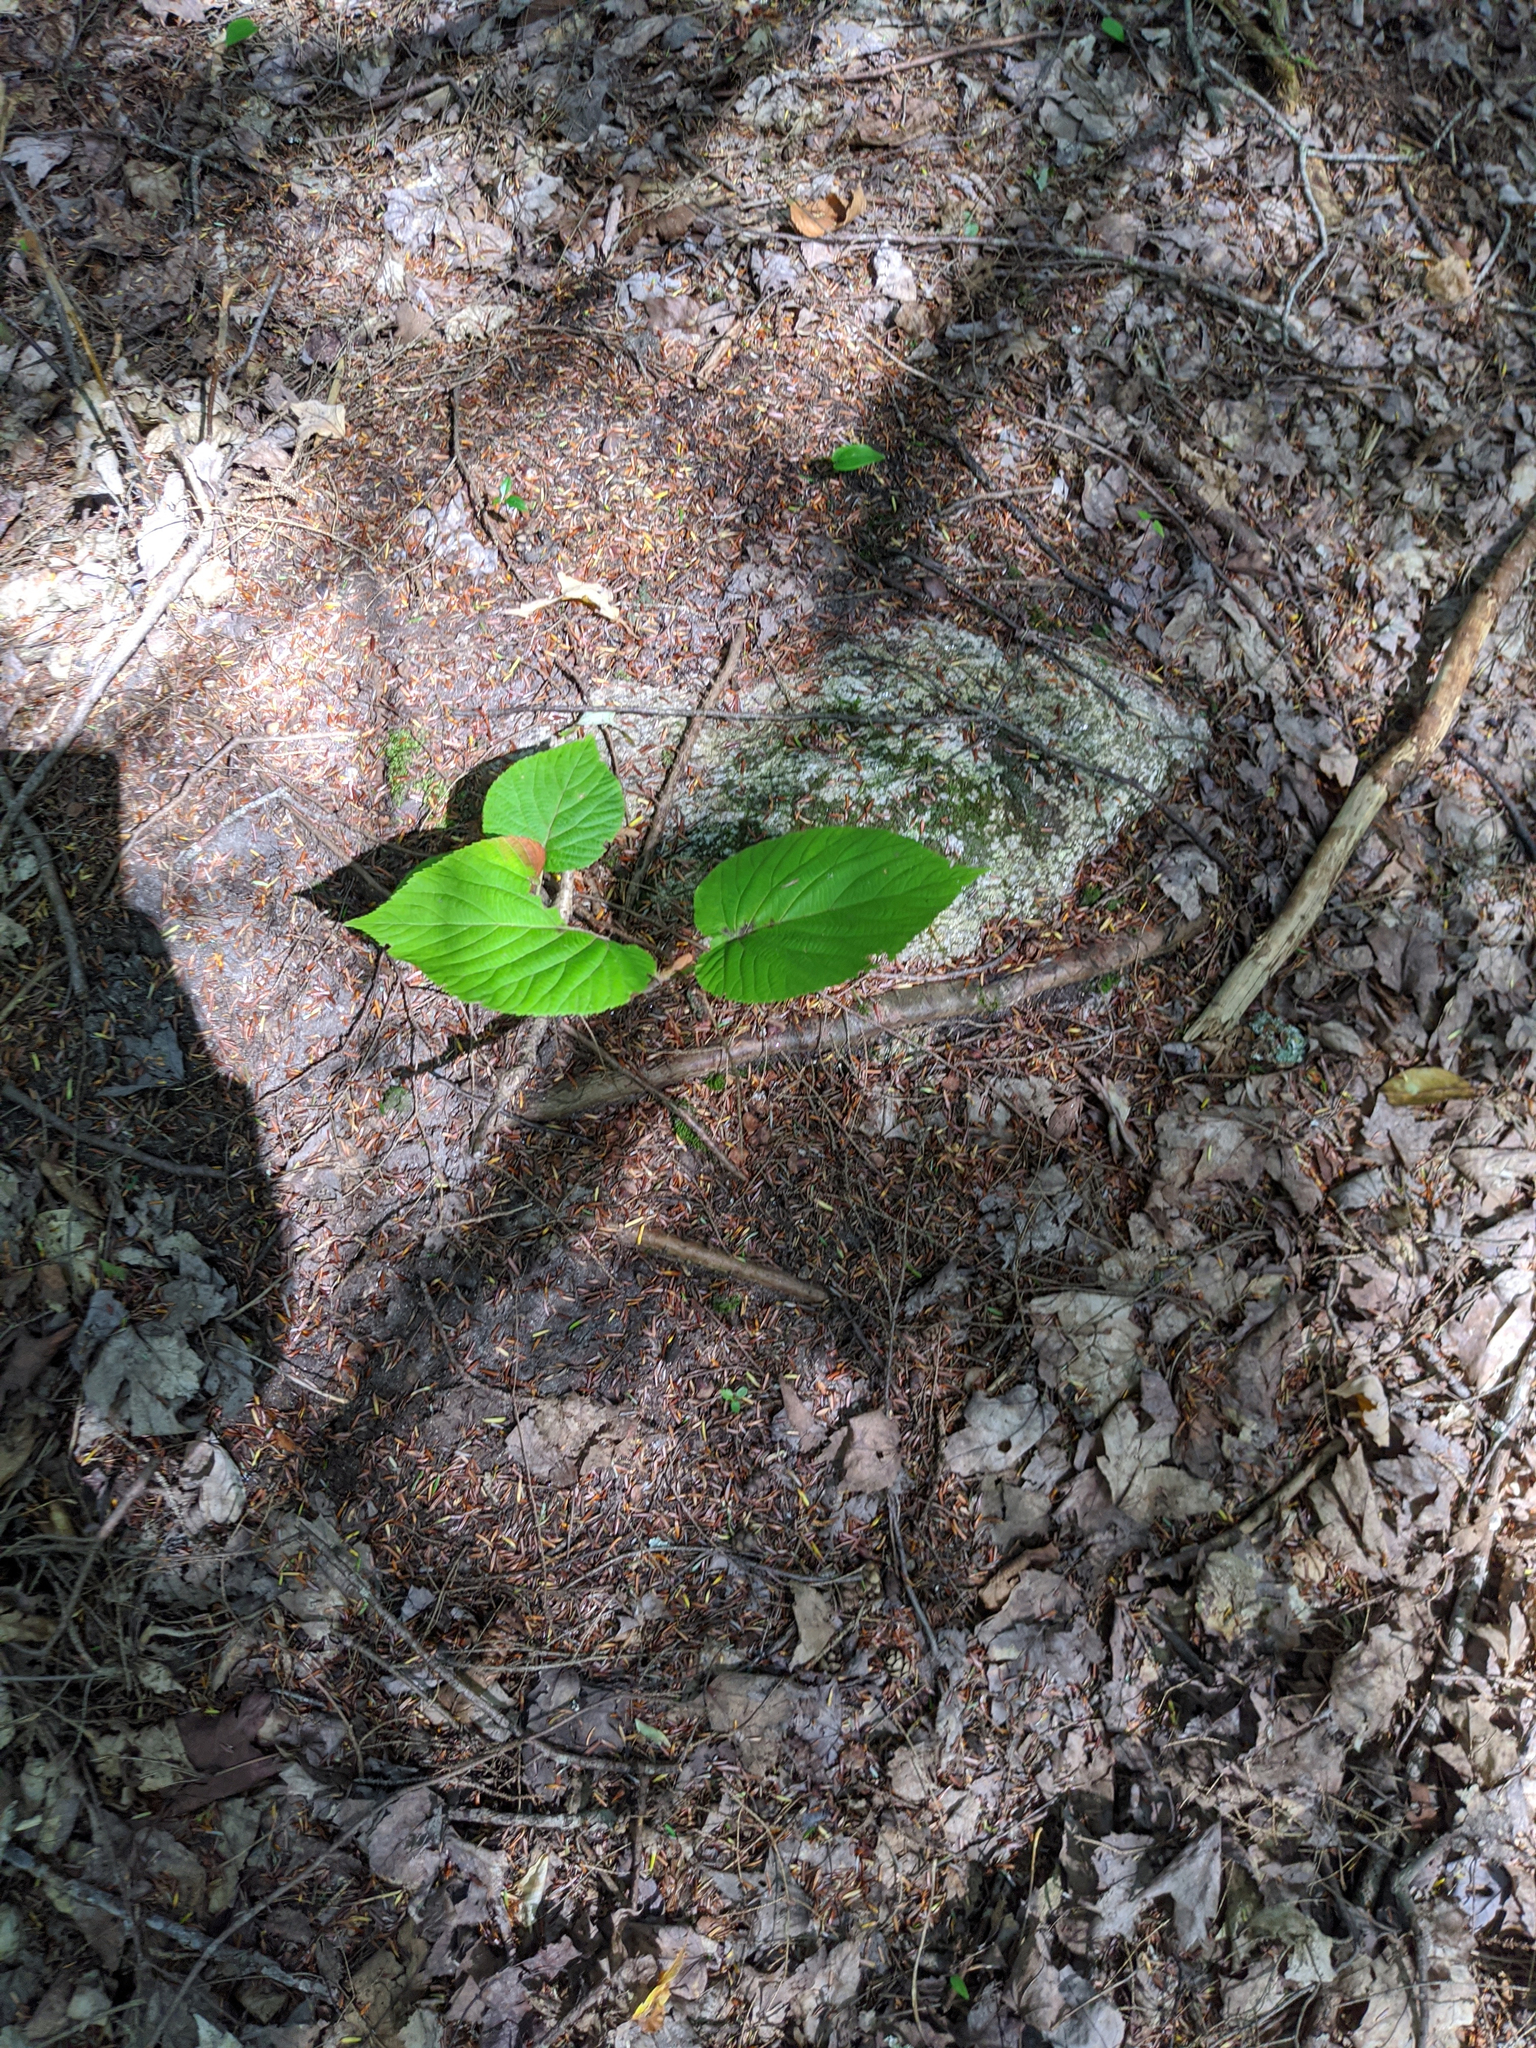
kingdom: Plantae
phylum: Tracheophyta
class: Magnoliopsida
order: Dipsacales
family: Viburnaceae
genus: Viburnum
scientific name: Viburnum lantanoides
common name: Hobblebush
